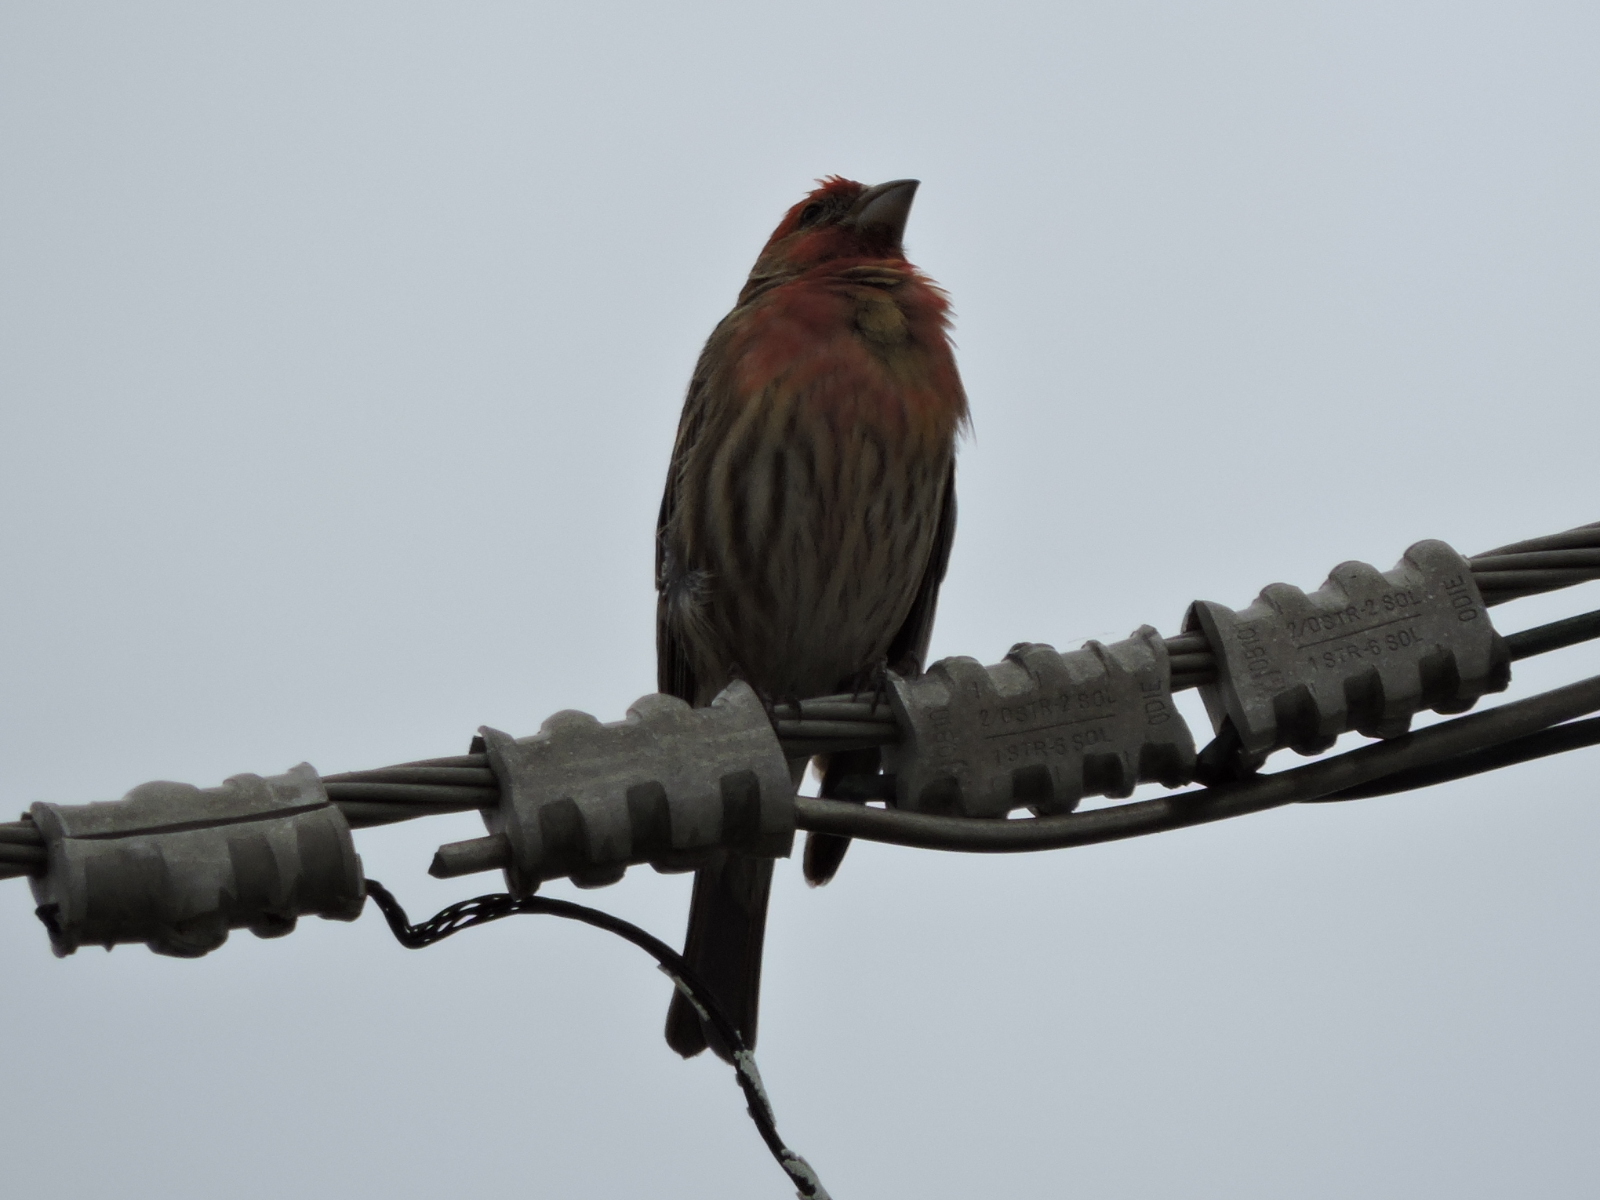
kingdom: Animalia
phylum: Chordata
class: Aves
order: Passeriformes
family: Fringillidae
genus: Haemorhous
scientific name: Haemorhous mexicanus
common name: House finch
